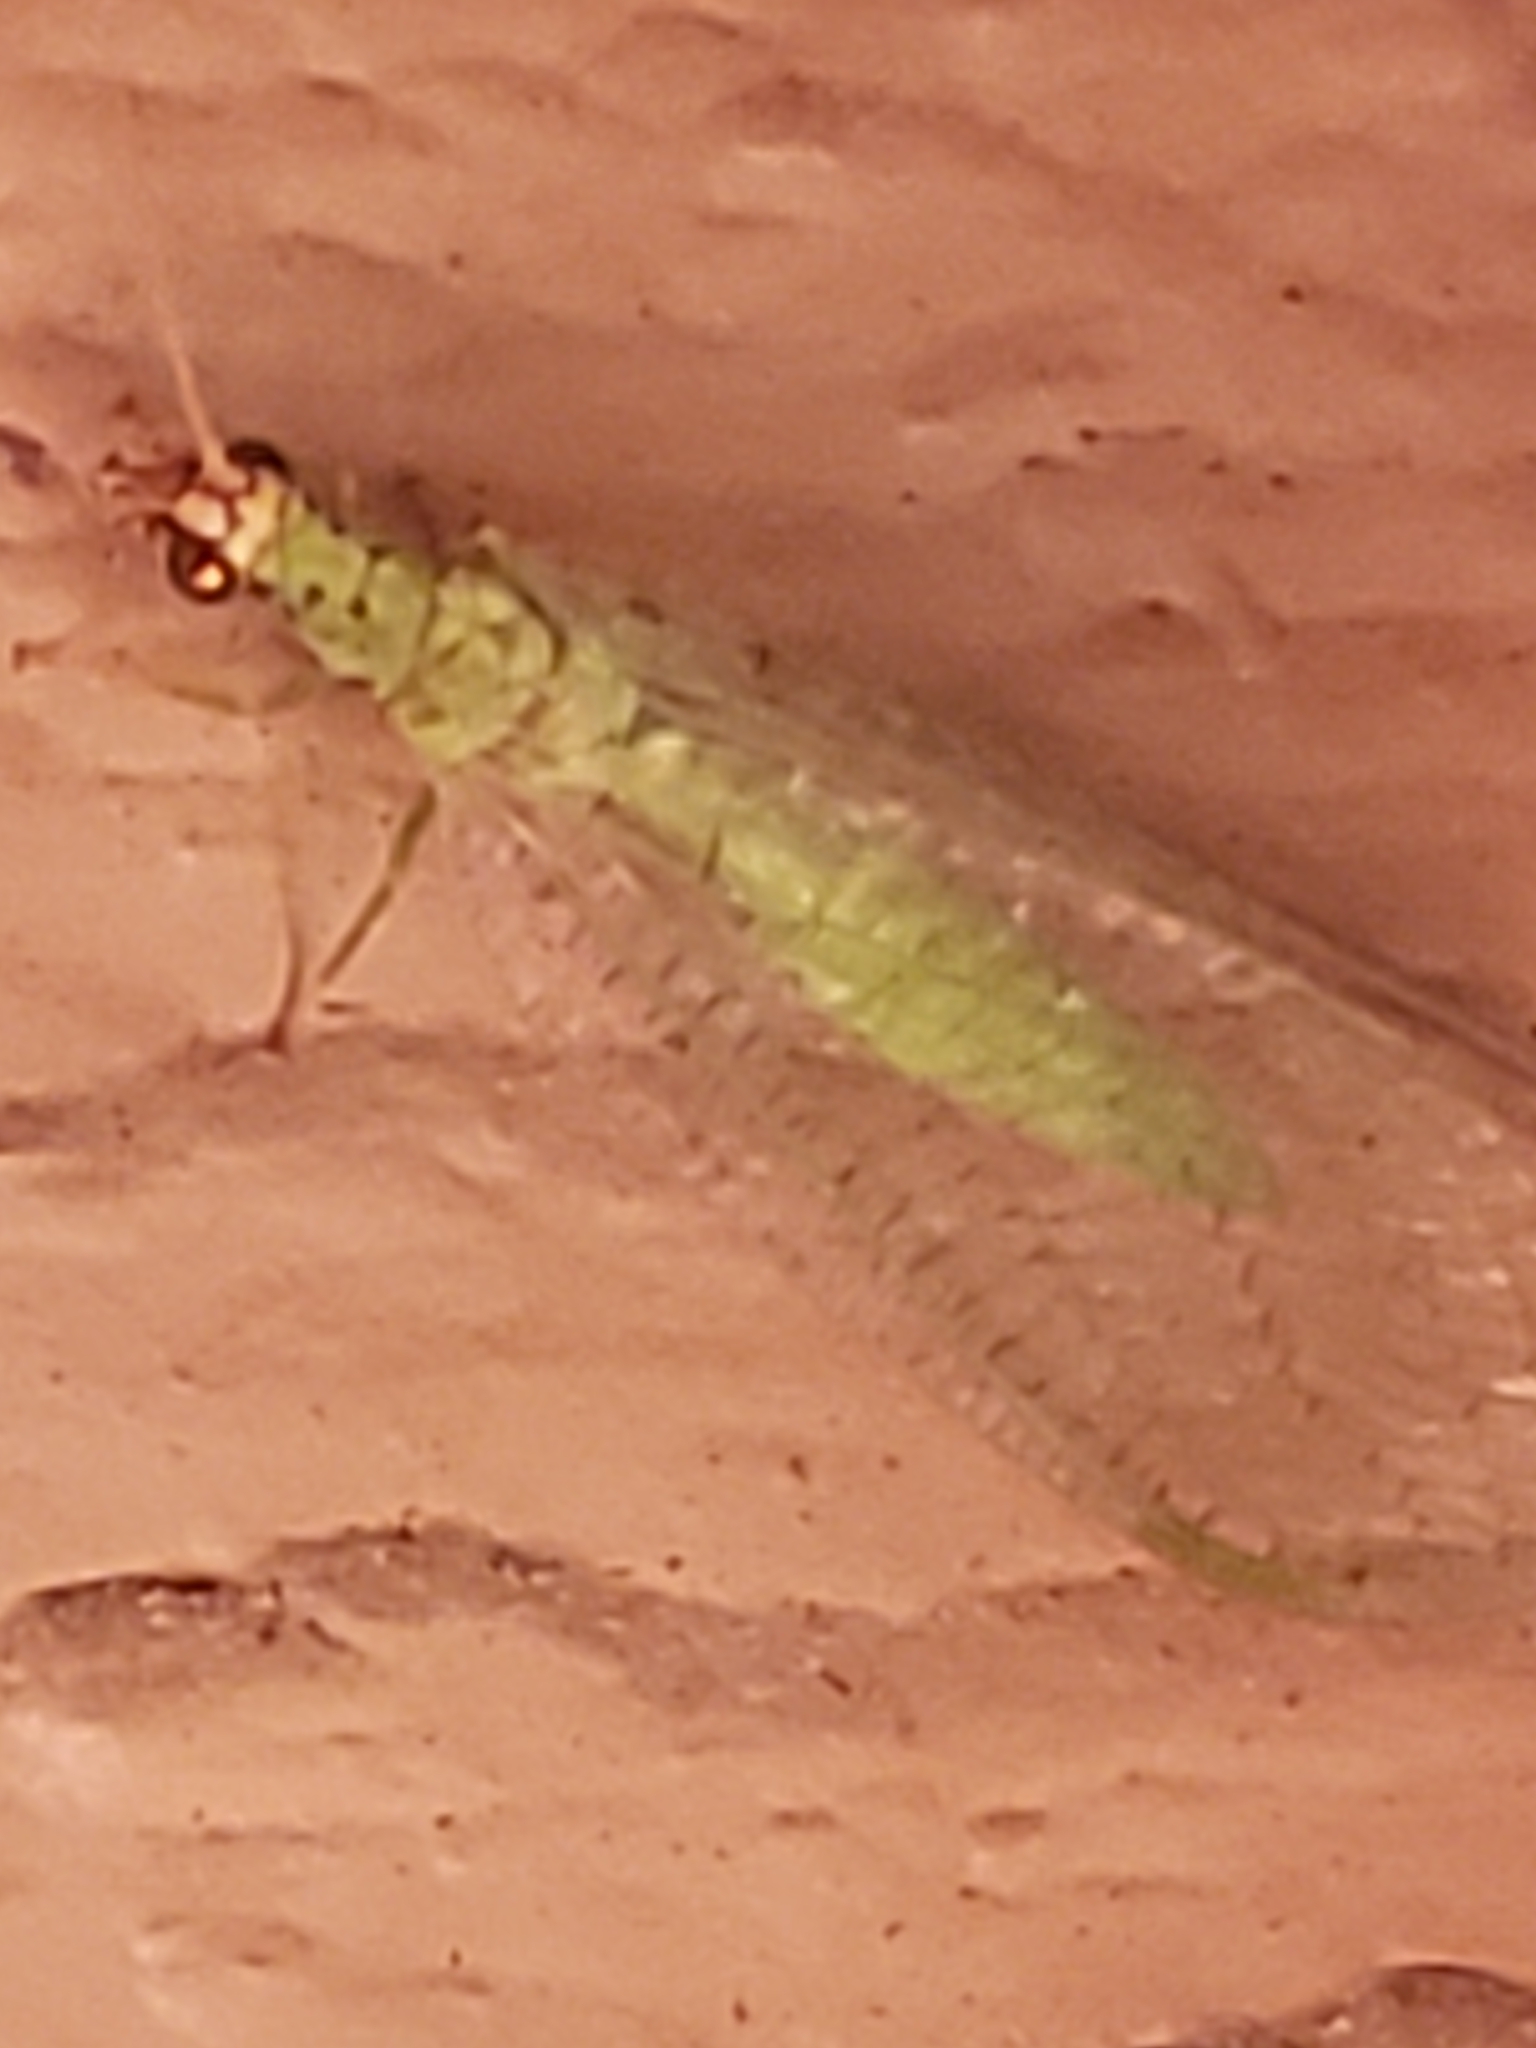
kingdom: Animalia
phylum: Arthropoda
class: Insecta
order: Neuroptera
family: Chrysopidae
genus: Chrysopa
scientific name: Chrysopa oculata
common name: Golden-eyed lacewing
